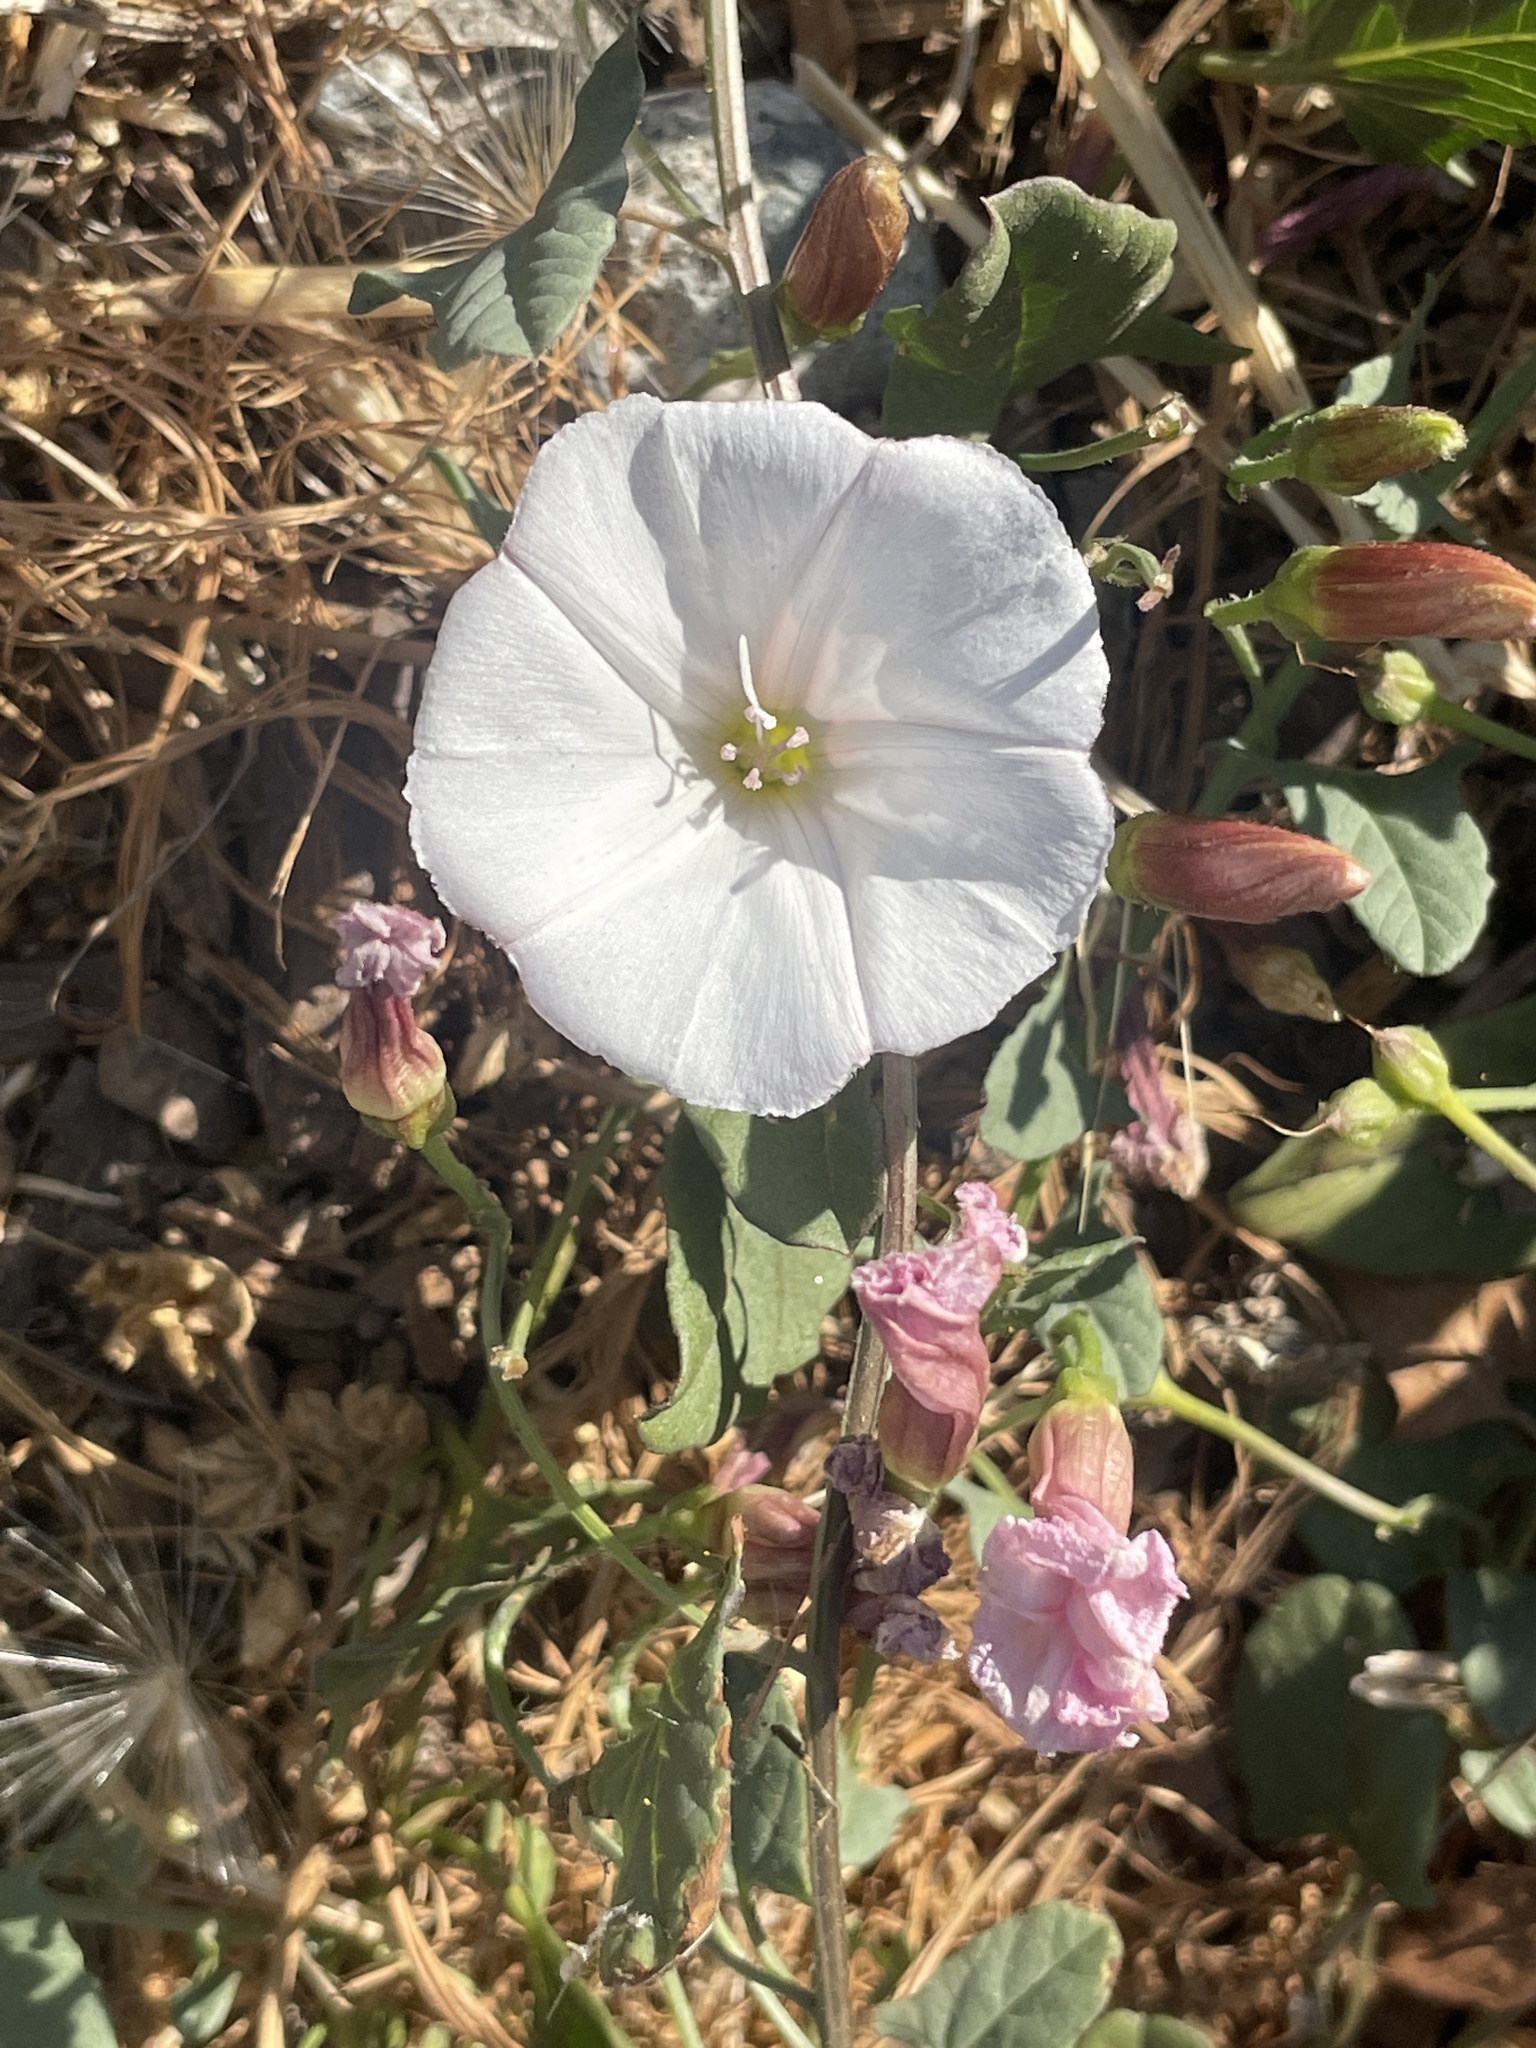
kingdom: Plantae
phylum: Tracheophyta
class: Magnoliopsida
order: Solanales
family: Convolvulaceae
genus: Convolvulus
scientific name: Convolvulus arvensis
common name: Field bindweed
